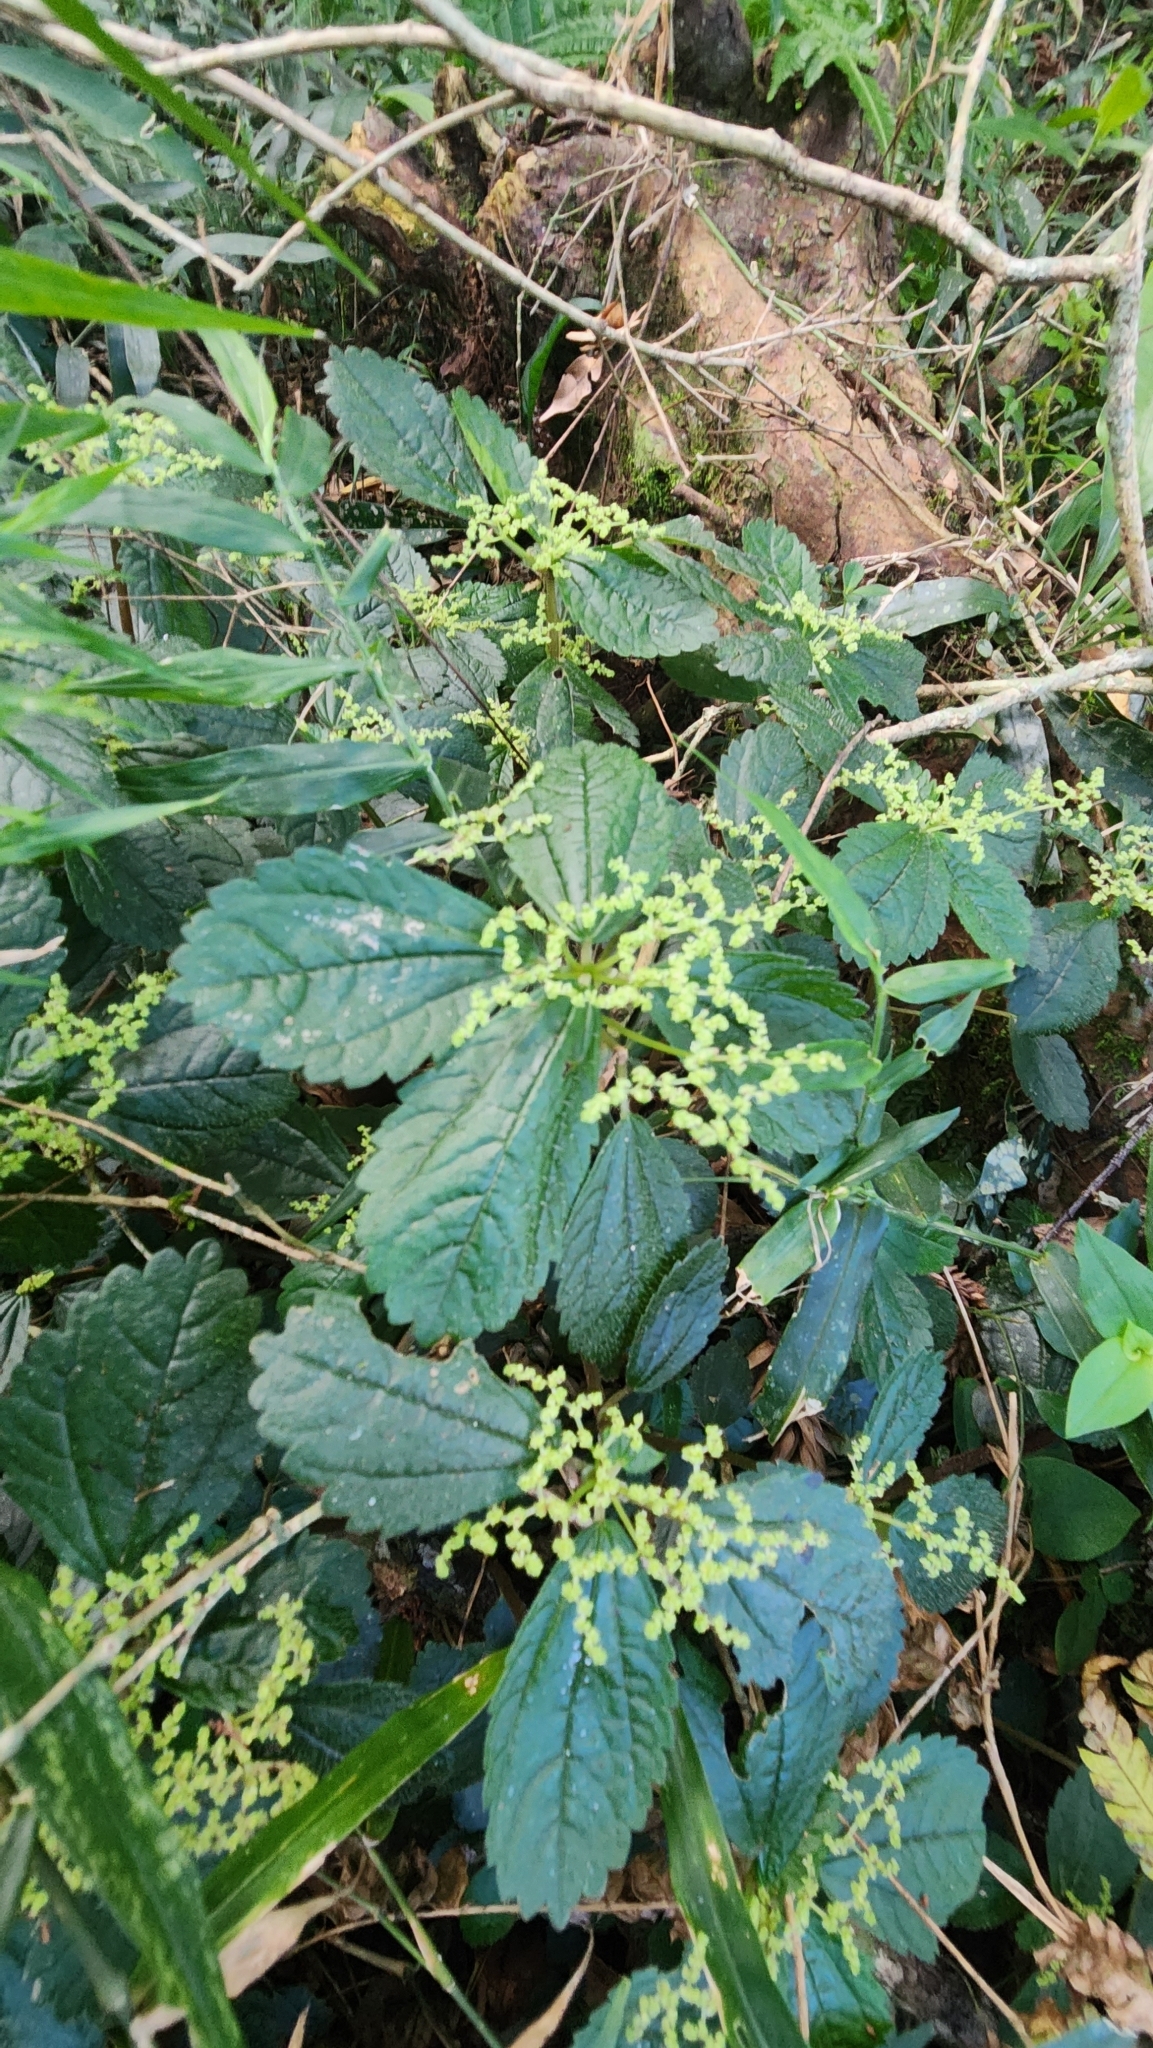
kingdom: Plantae
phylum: Tracheophyta
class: Magnoliopsida
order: Rosales
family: Urticaceae
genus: Pilea
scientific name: Pilea pubescens
